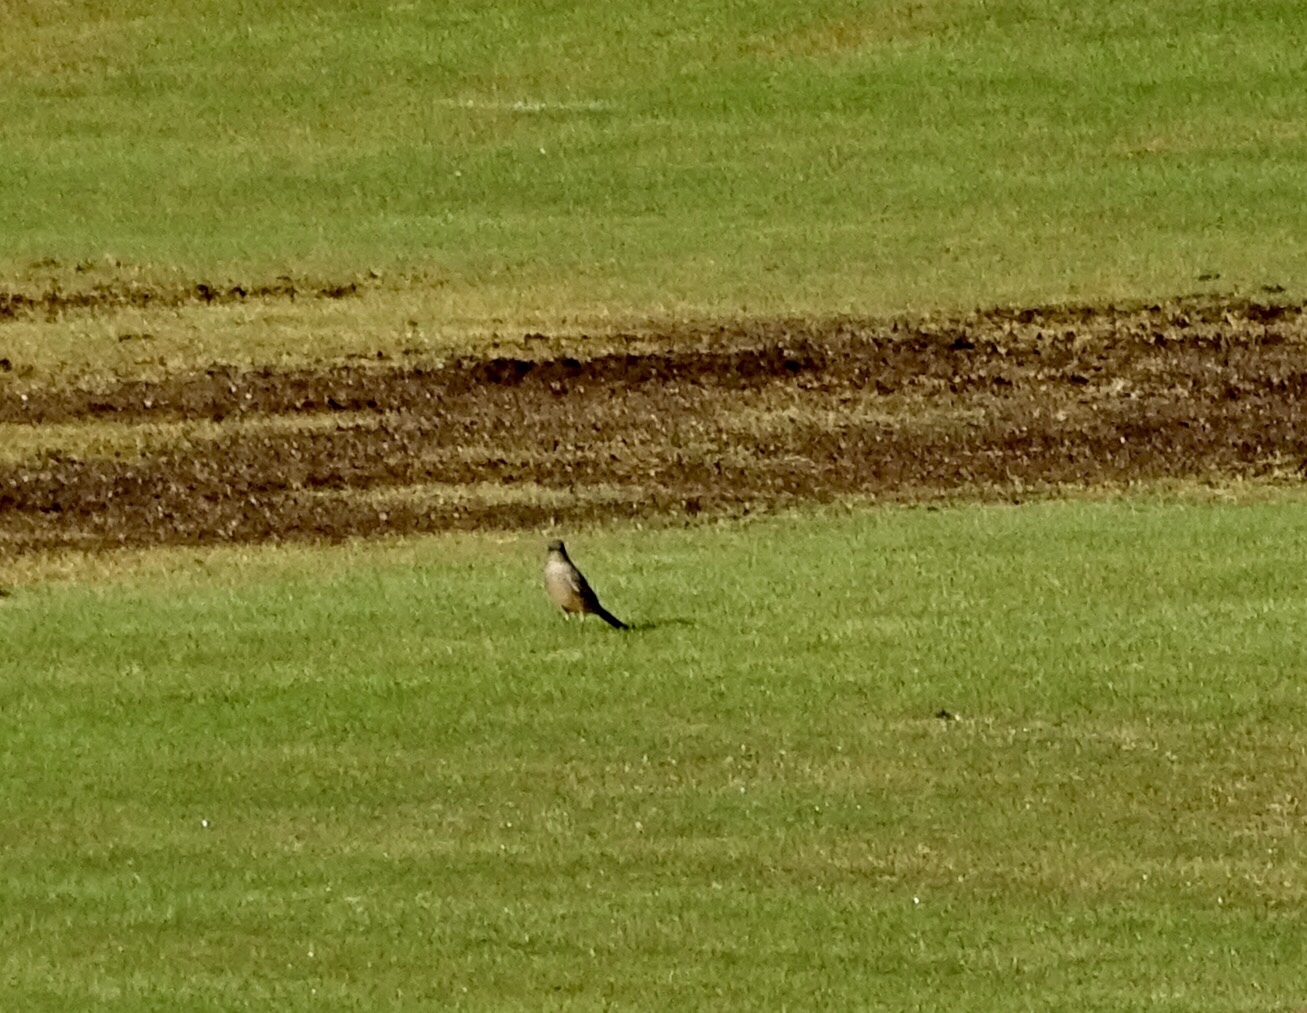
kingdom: Animalia
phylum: Chordata
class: Aves
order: Passeriformes
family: Tyrannidae
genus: Sayornis
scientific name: Sayornis saya
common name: Say's phoebe
